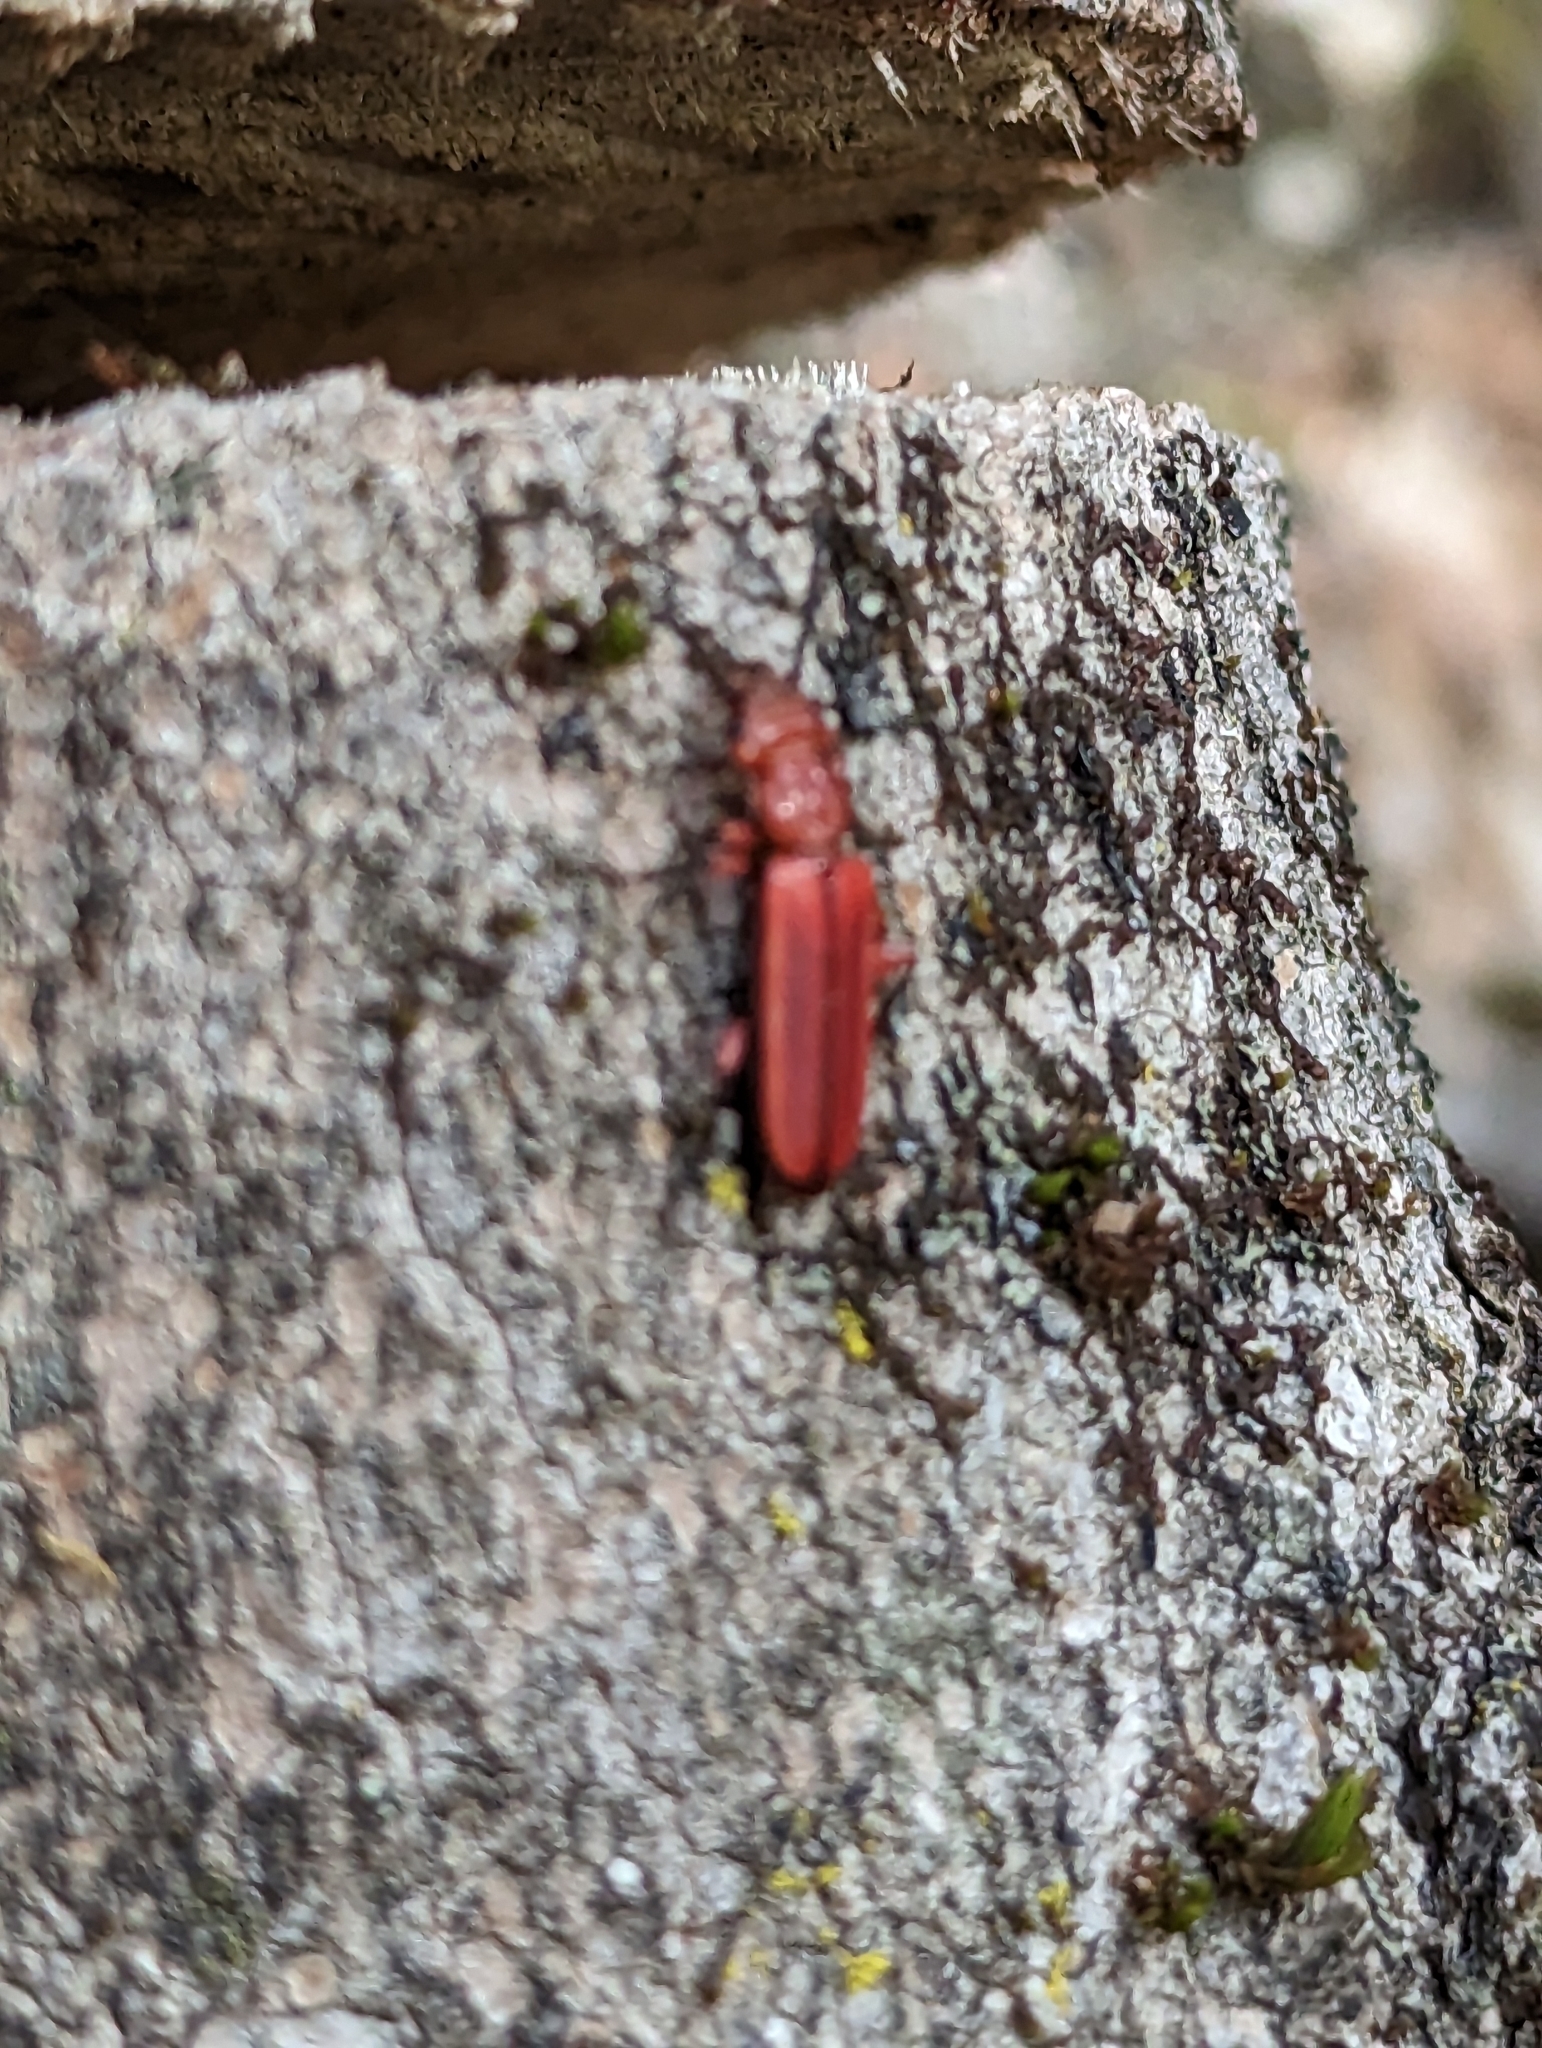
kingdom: Animalia
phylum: Arthropoda
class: Insecta
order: Coleoptera
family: Cucujidae
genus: Cucujus
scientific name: Cucujus clavipes
